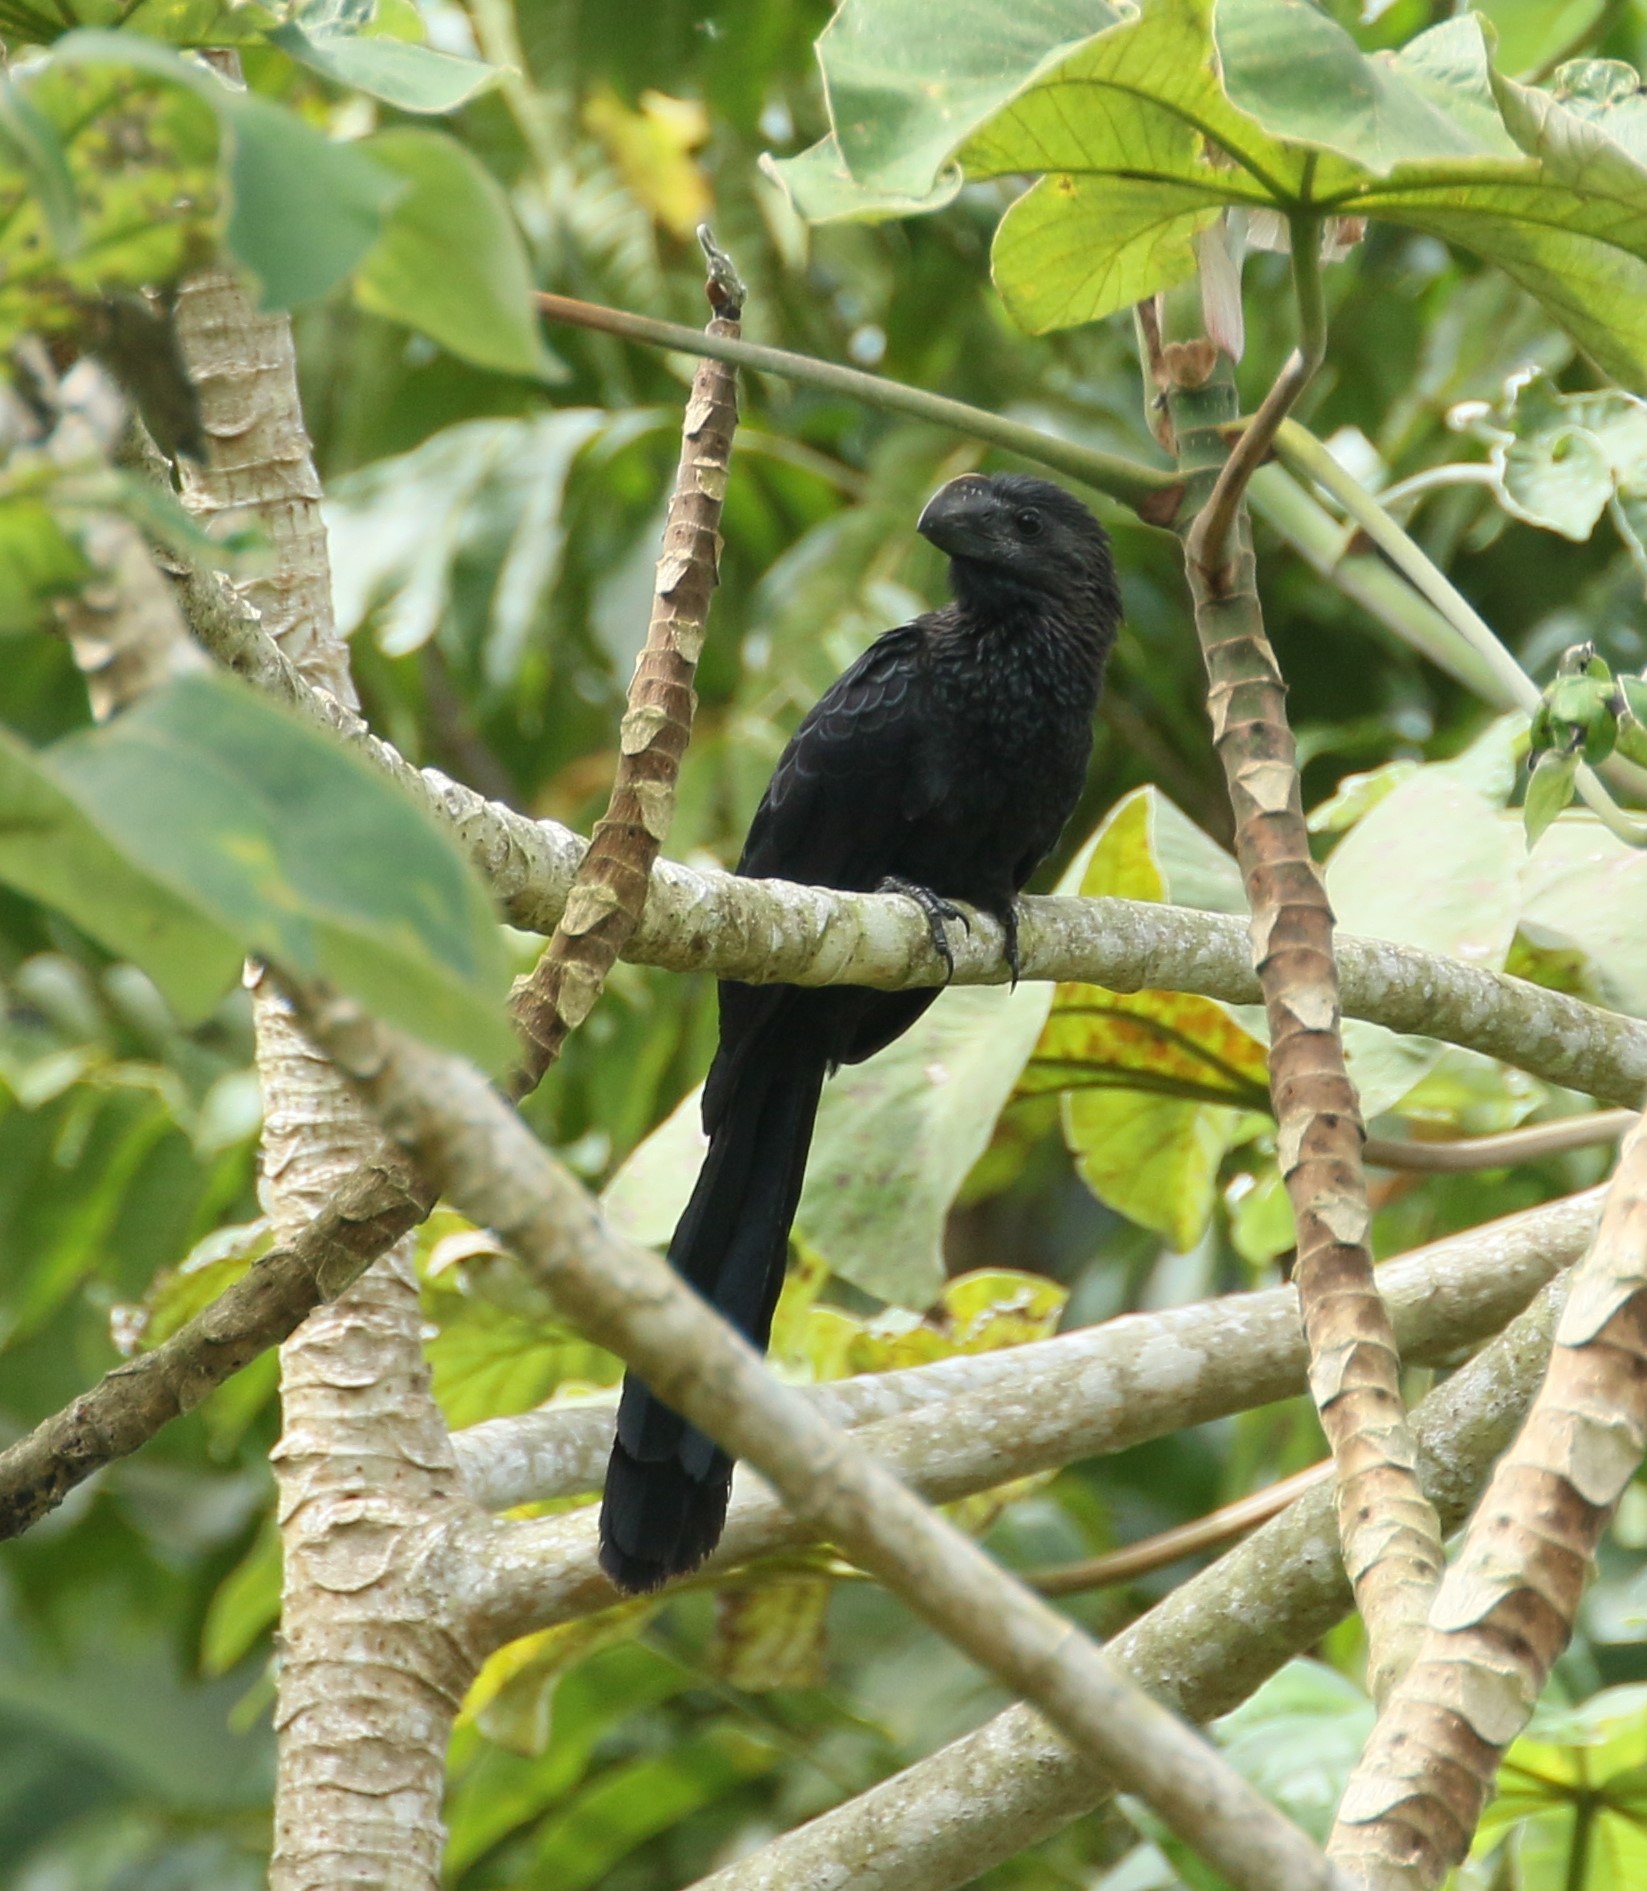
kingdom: Animalia
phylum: Chordata
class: Aves
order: Cuculiformes
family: Cuculidae
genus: Crotophaga
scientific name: Crotophaga ani
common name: Smooth-billed ani
